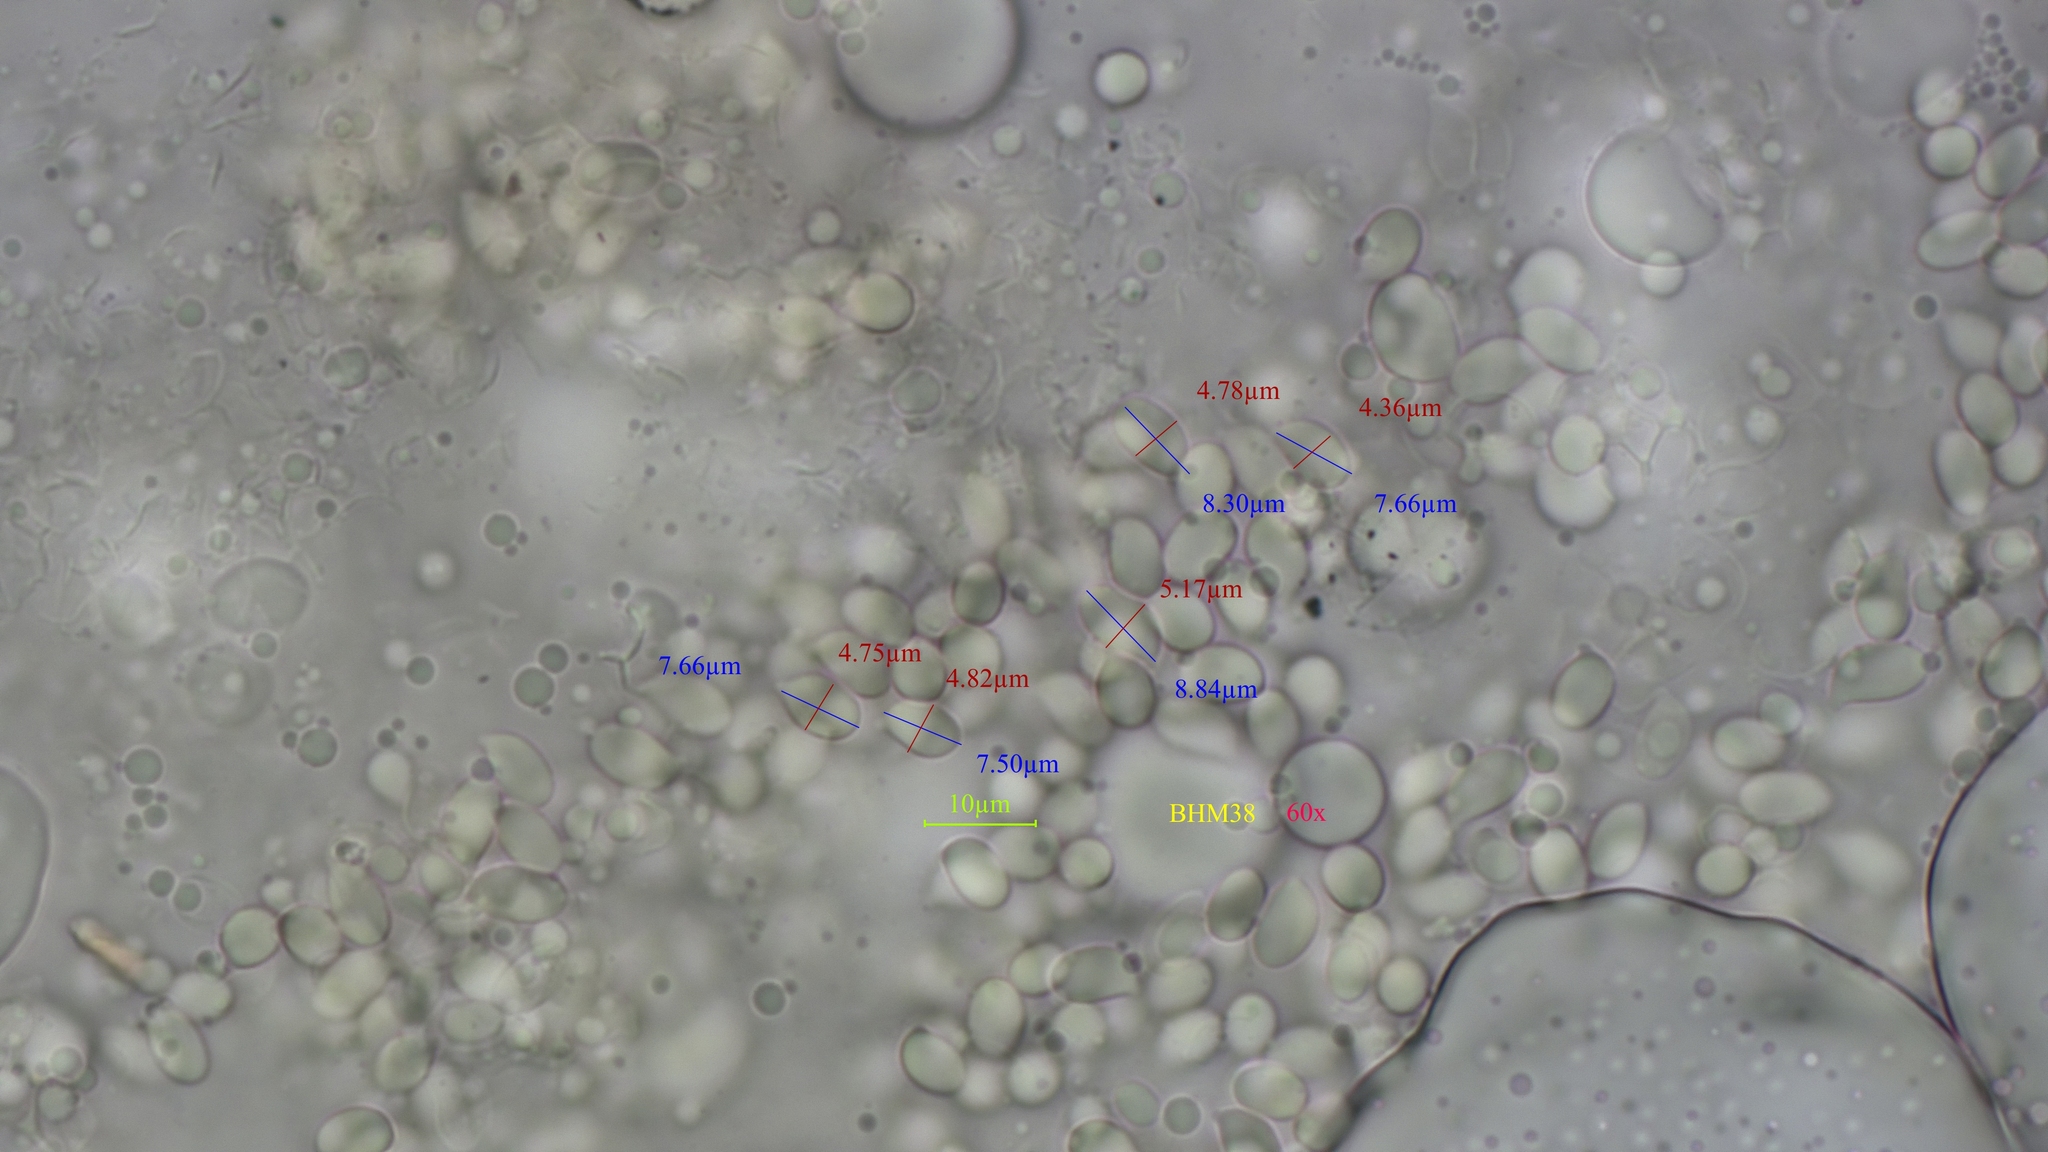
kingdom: Fungi
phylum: Basidiomycota
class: Agaricomycetes
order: Agaricales
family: Hygrophoraceae
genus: Gliophorus
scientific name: Gliophorus psittacinus
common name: Parrot wax-cap
